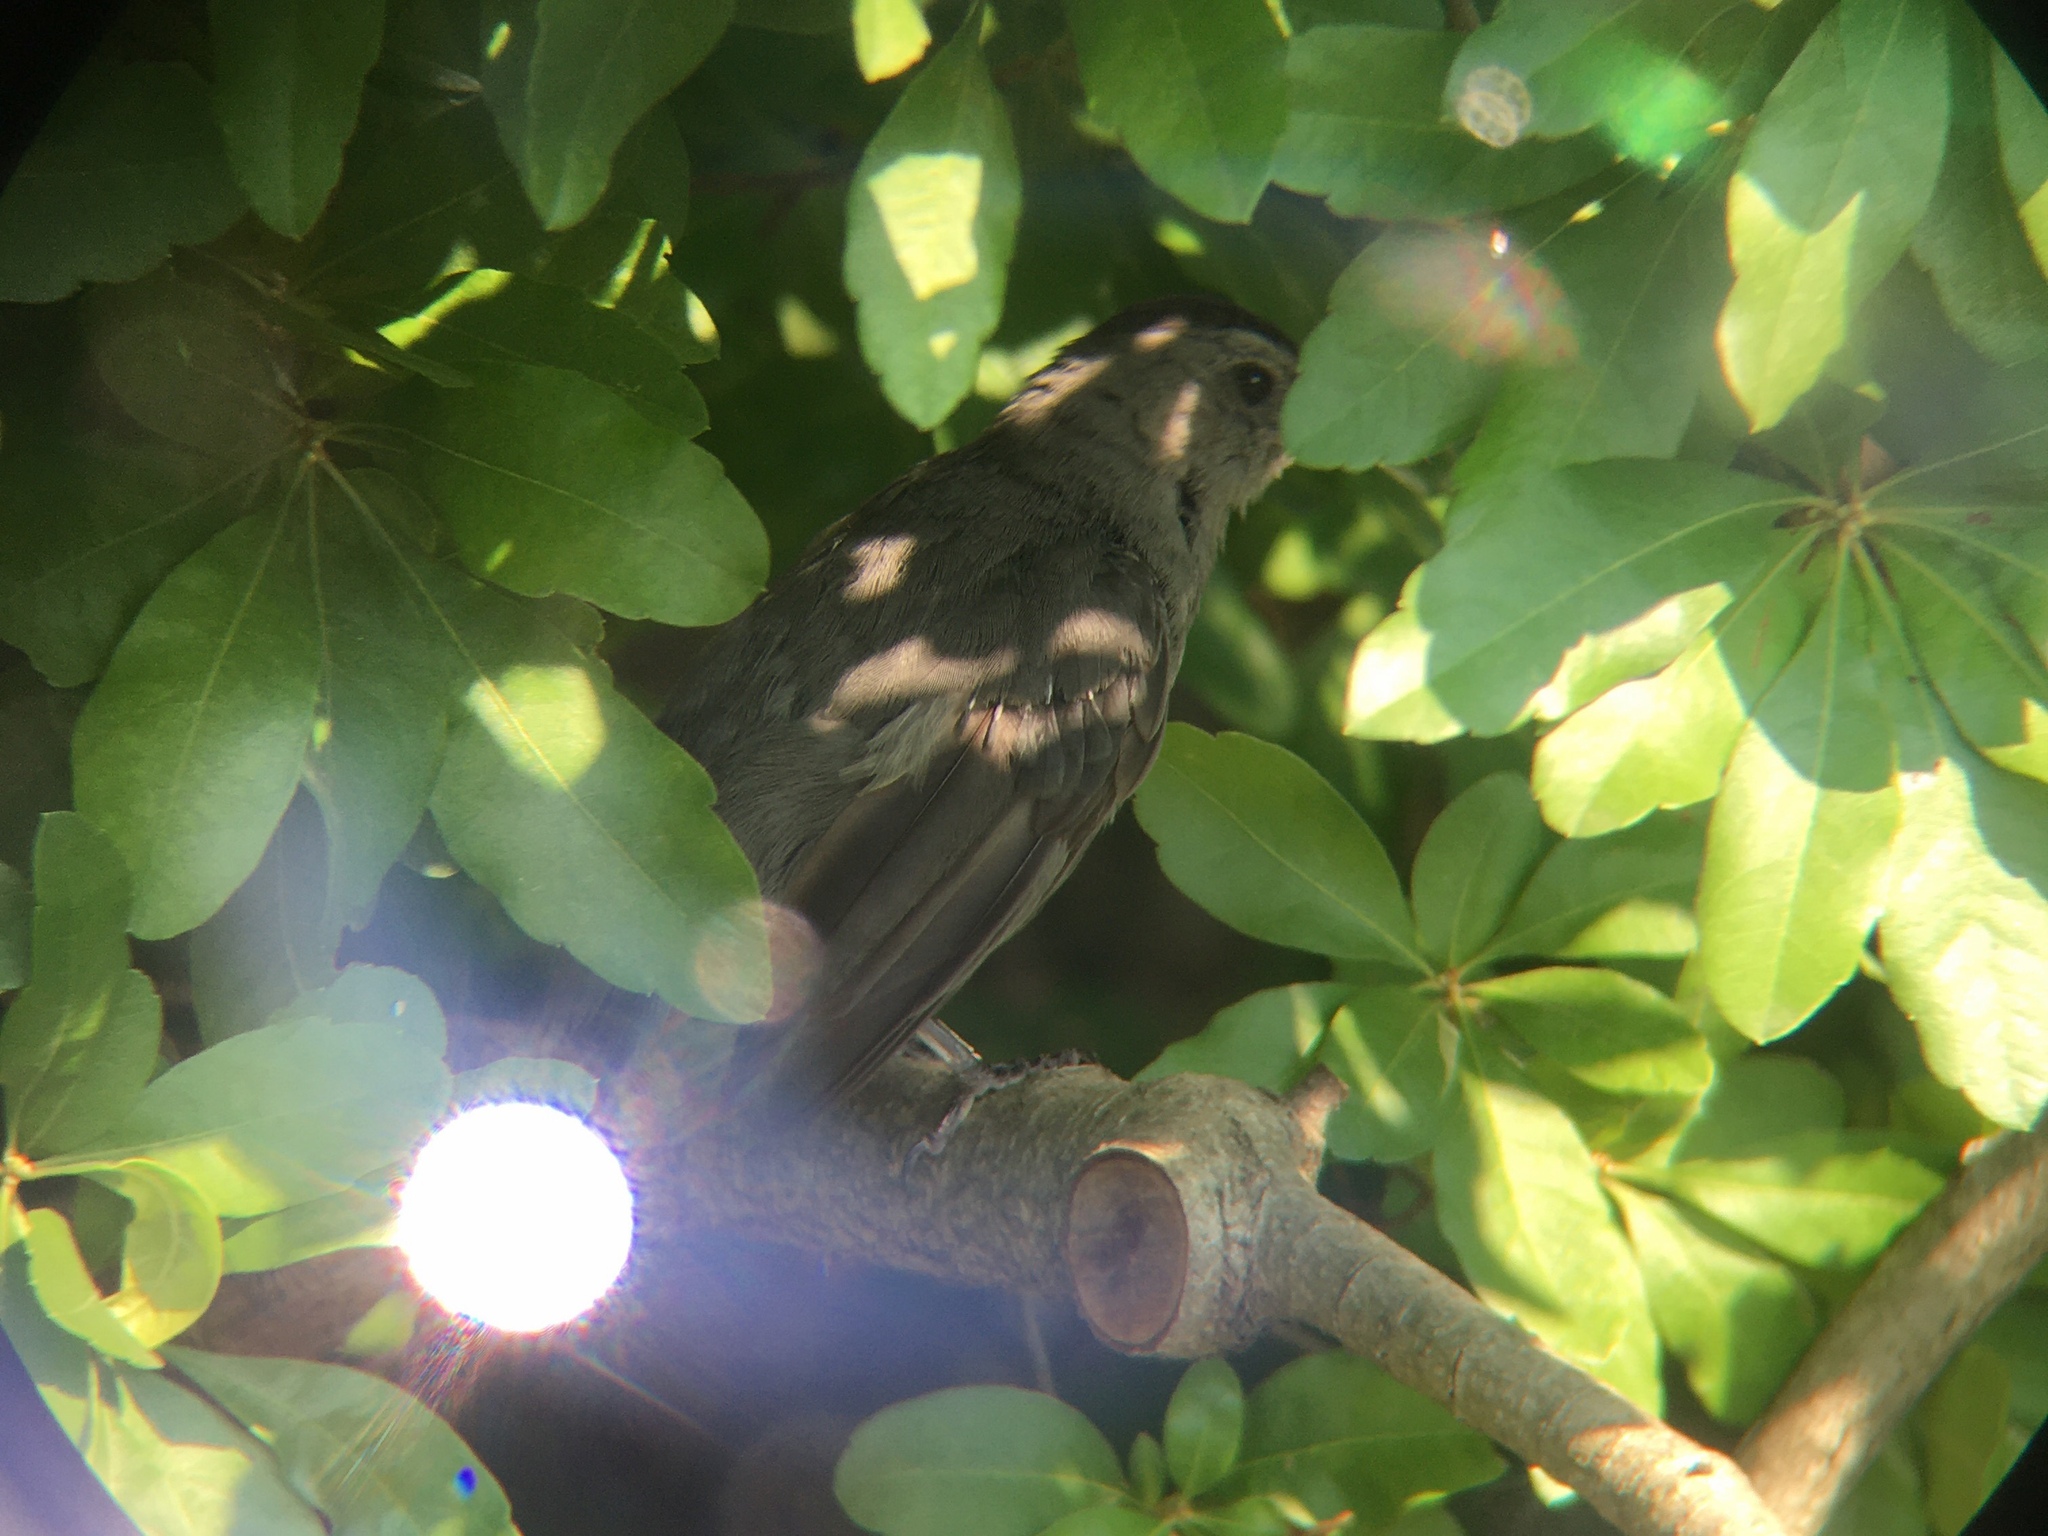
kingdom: Animalia
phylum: Chordata
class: Aves
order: Passeriformes
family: Mimidae
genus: Dumetella
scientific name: Dumetella carolinensis
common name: Gray catbird
